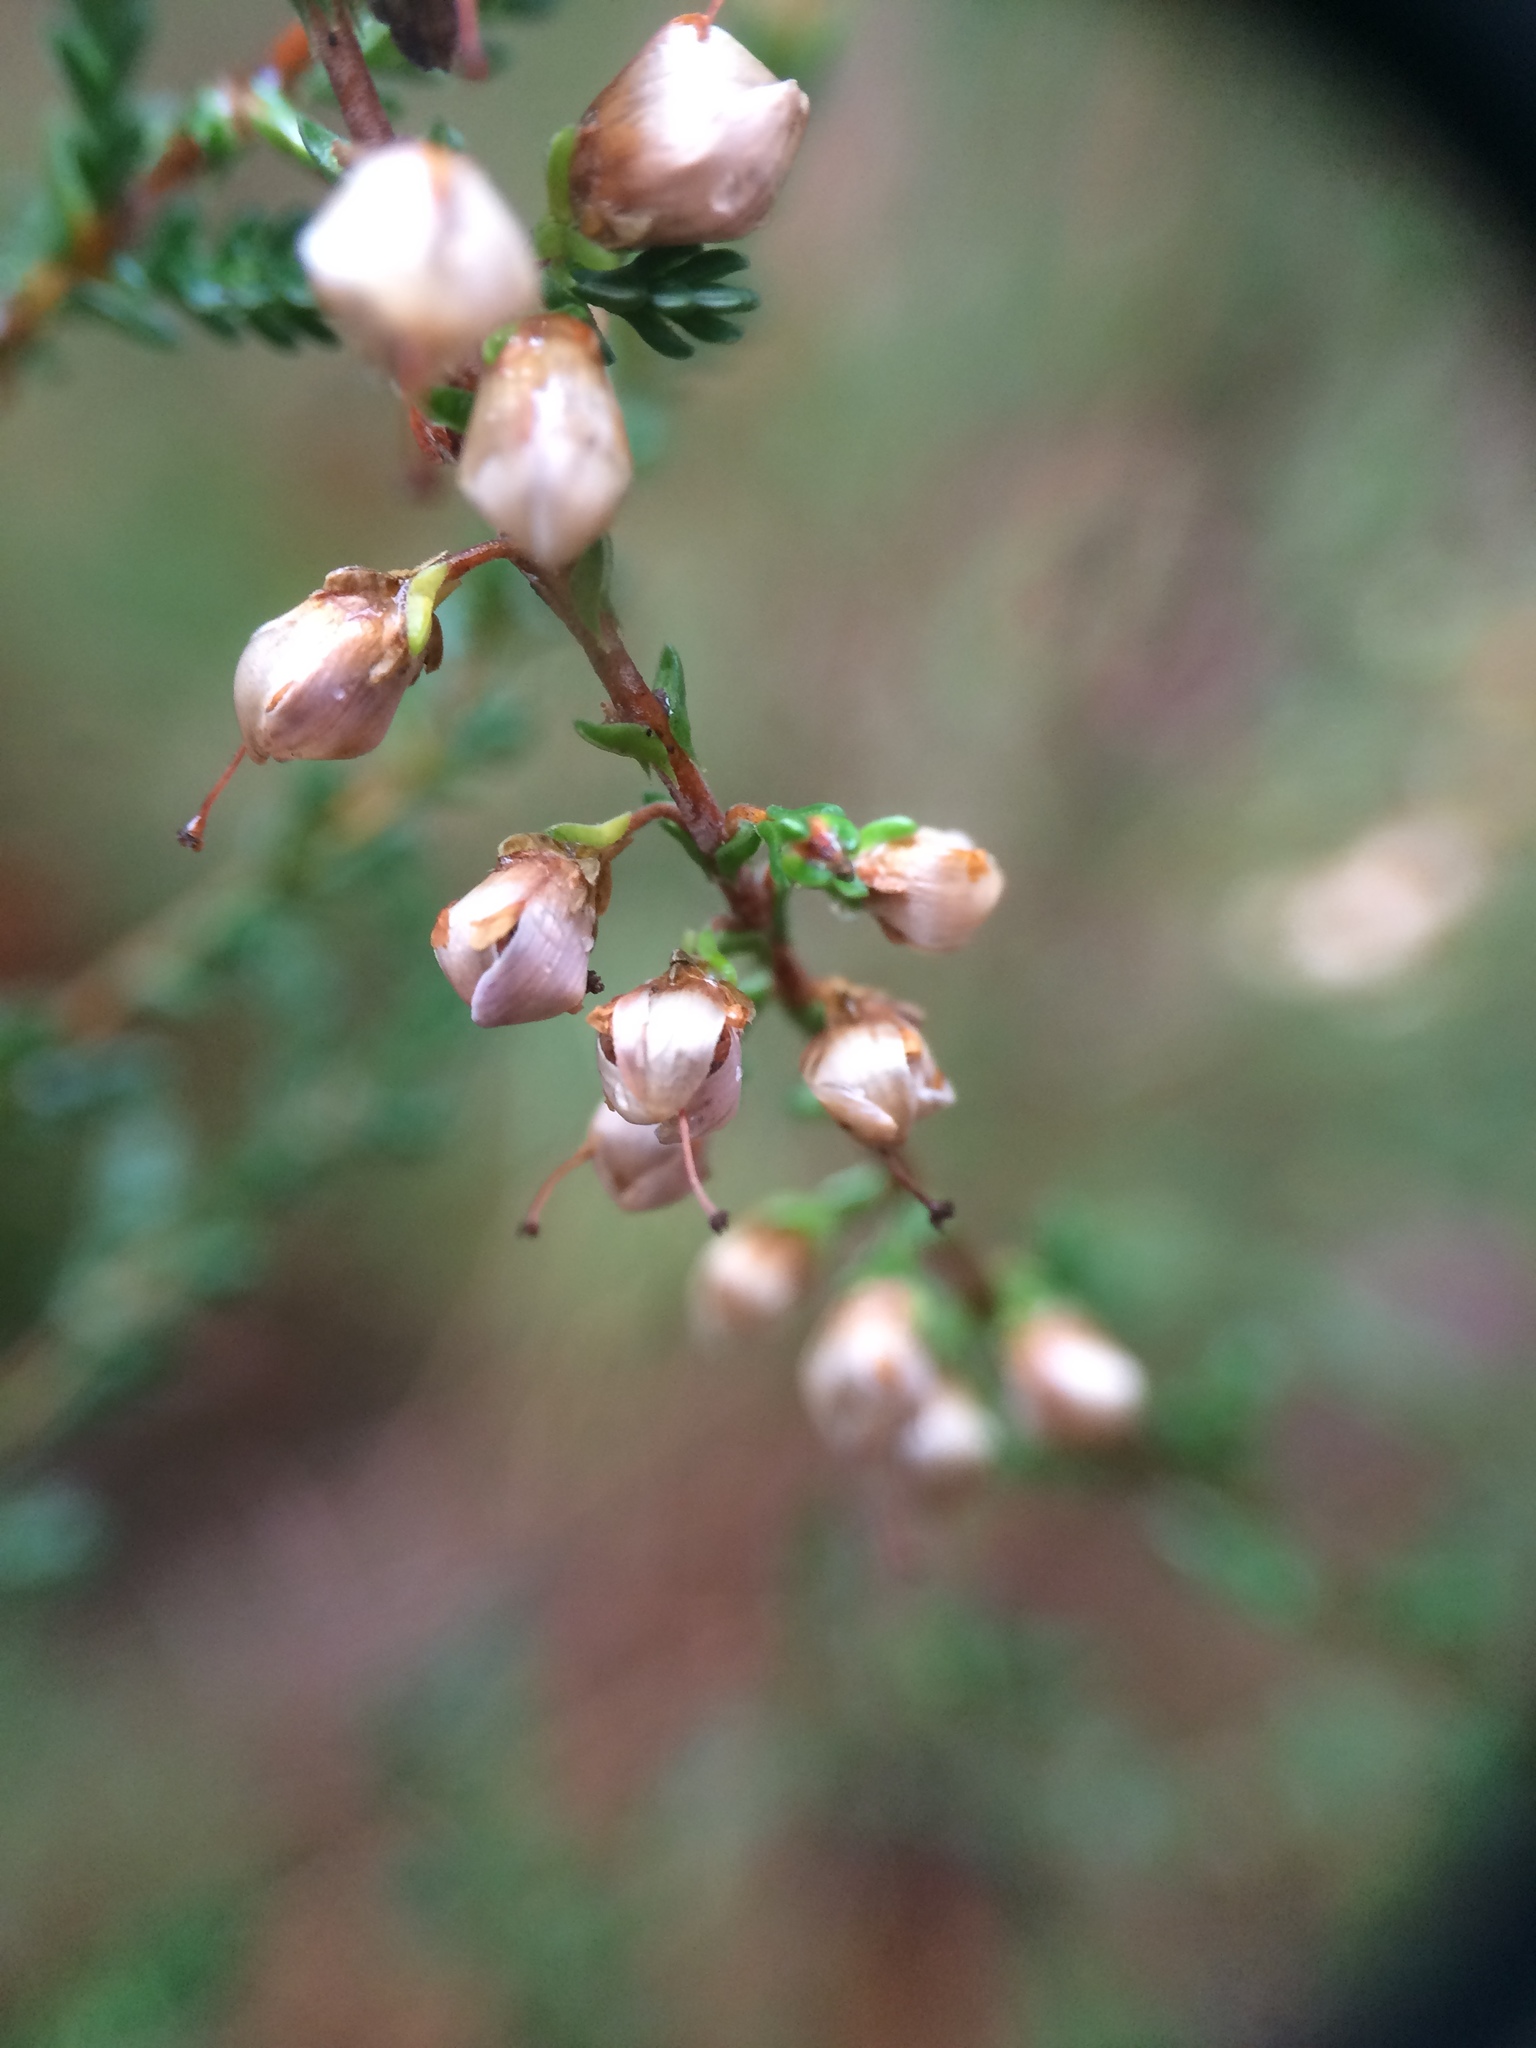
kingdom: Plantae
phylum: Tracheophyta
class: Magnoliopsida
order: Ericales
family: Ericaceae
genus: Calluna
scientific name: Calluna vulgaris
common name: Heather
